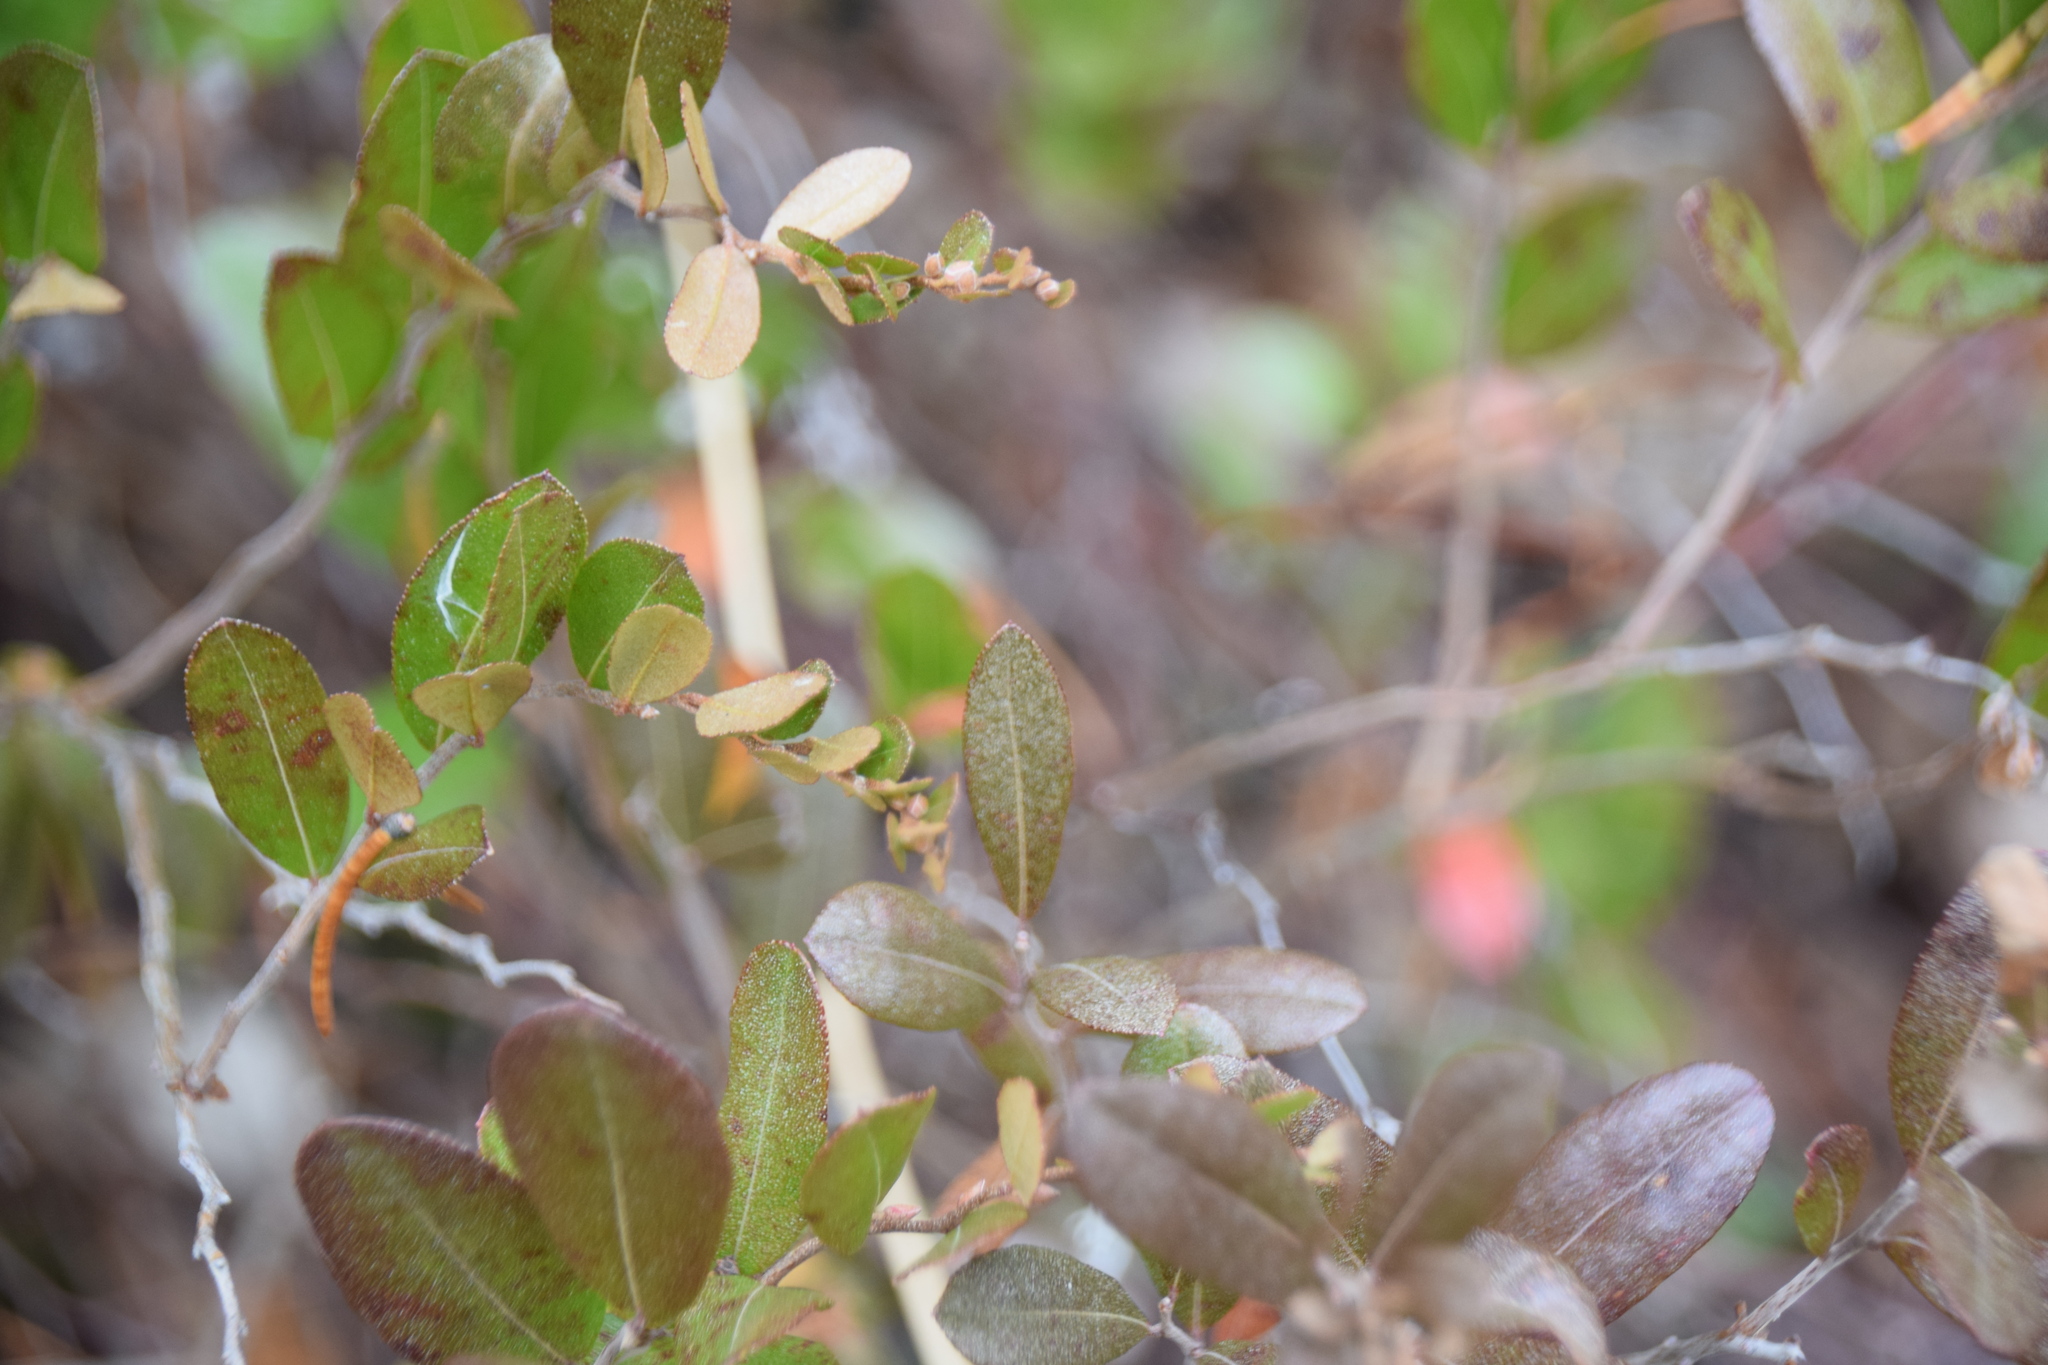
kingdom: Plantae
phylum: Tracheophyta
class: Magnoliopsida
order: Ericales
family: Ericaceae
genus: Chamaedaphne
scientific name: Chamaedaphne calyculata
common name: Leatherleaf
